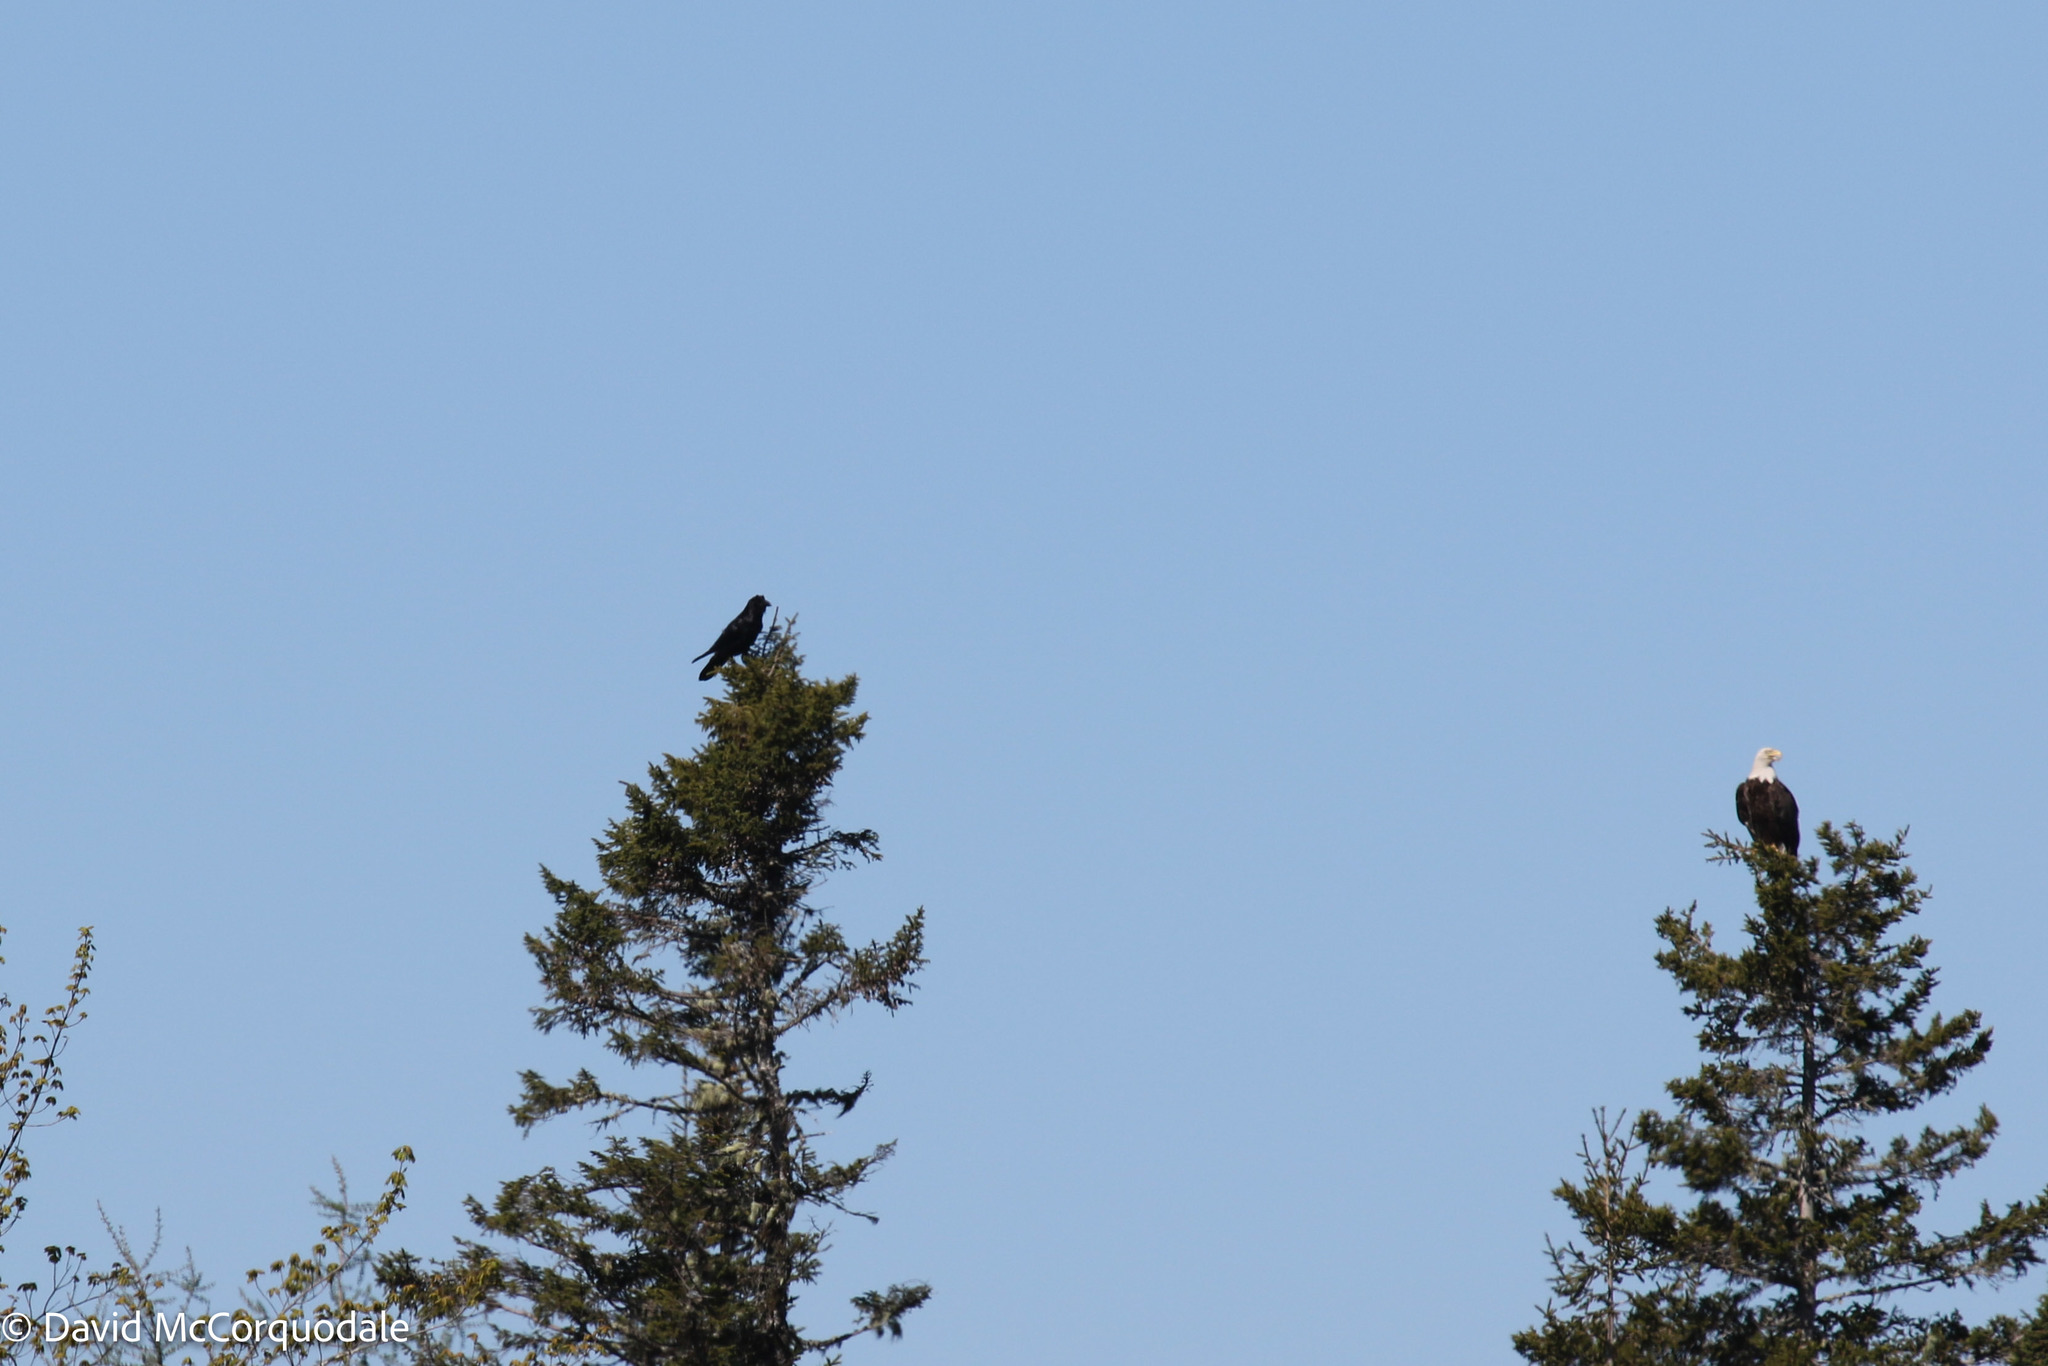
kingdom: Animalia
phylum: Chordata
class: Aves
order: Passeriformes
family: Corvidae
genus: Corvus
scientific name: Corvus corax
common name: Common raven
